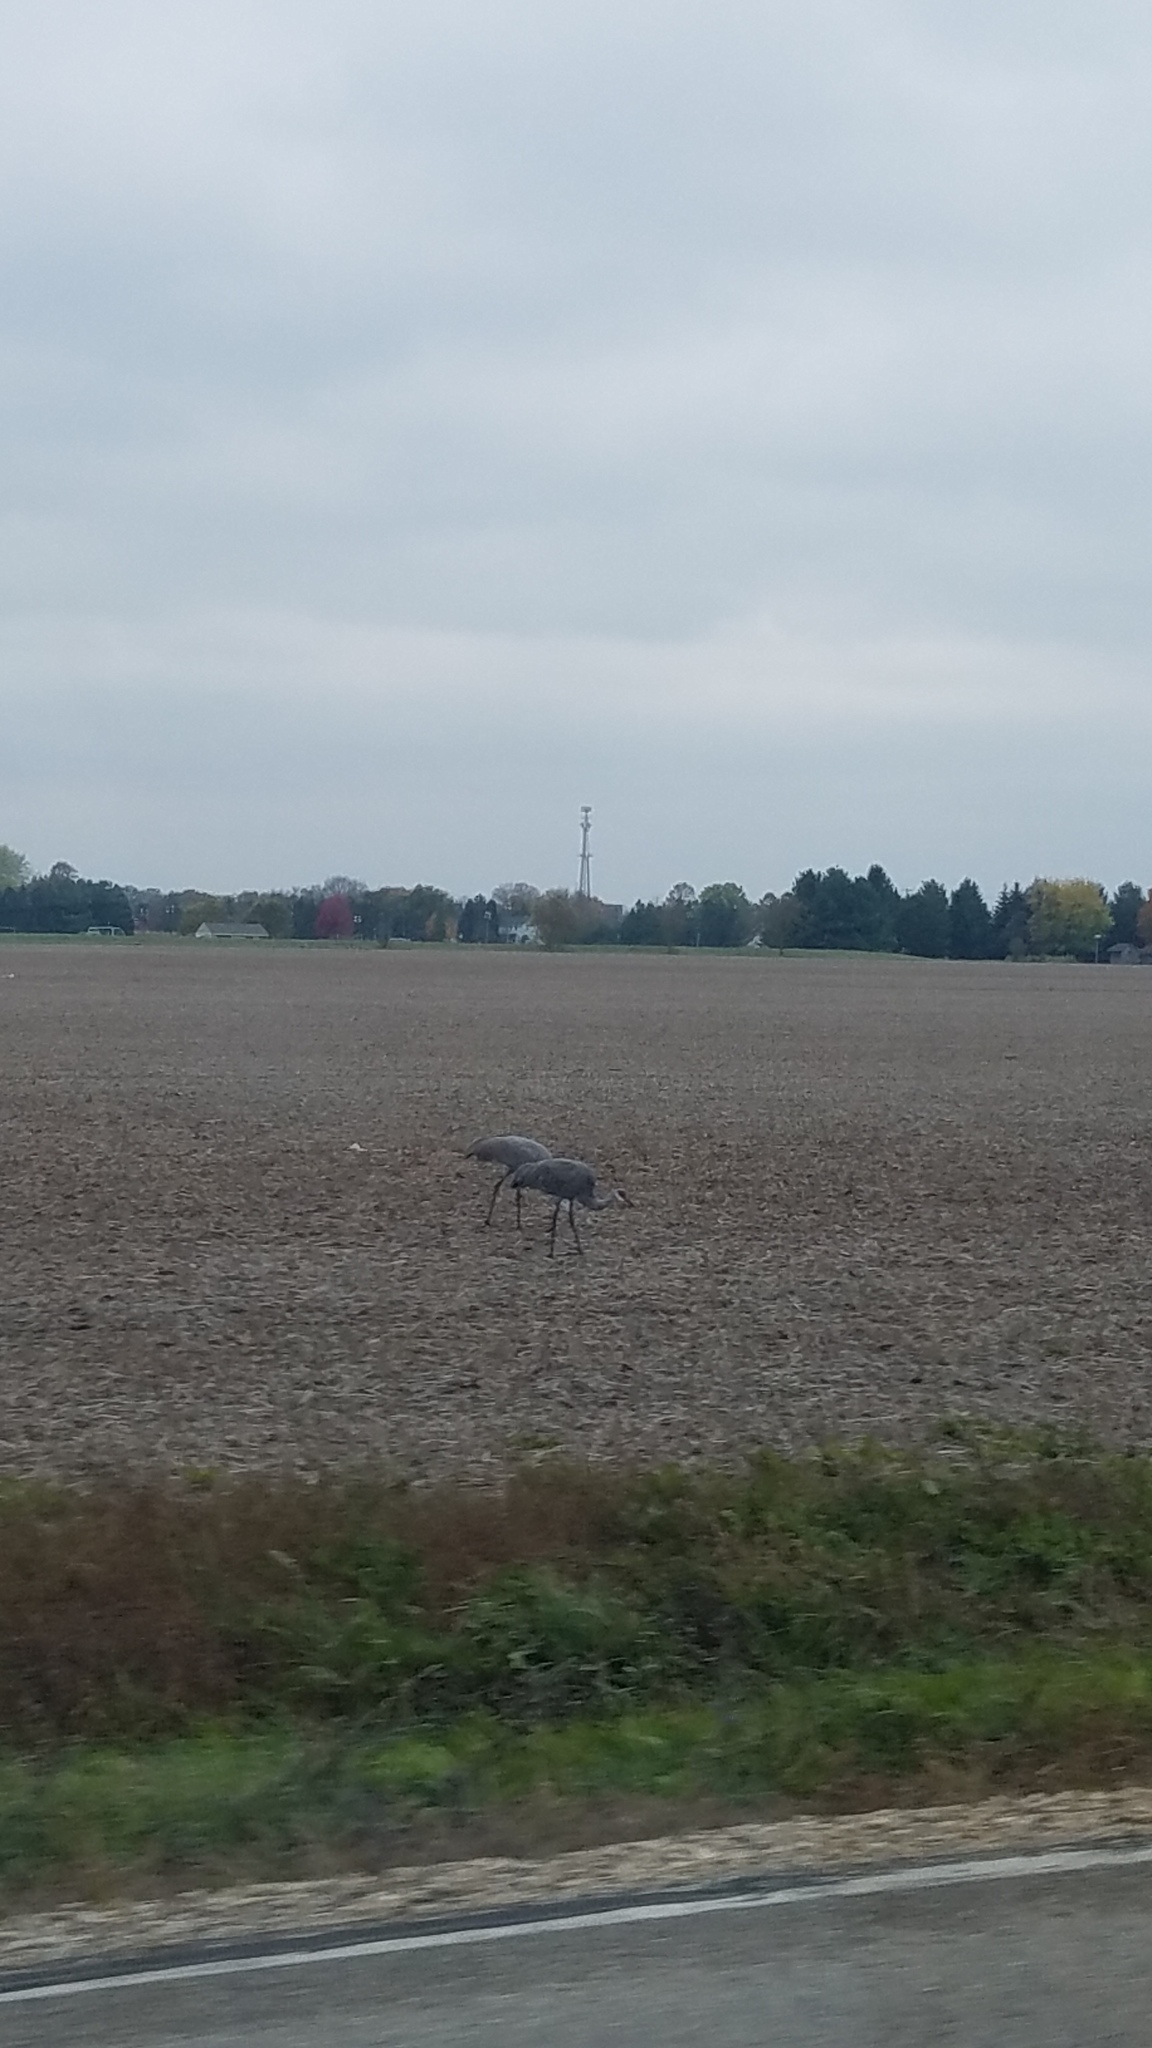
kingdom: Animalia
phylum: Chordata
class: Aves
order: Gruiformes
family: Gruidae
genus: Grus
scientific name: Grus canadensis
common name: Sandhill crane
